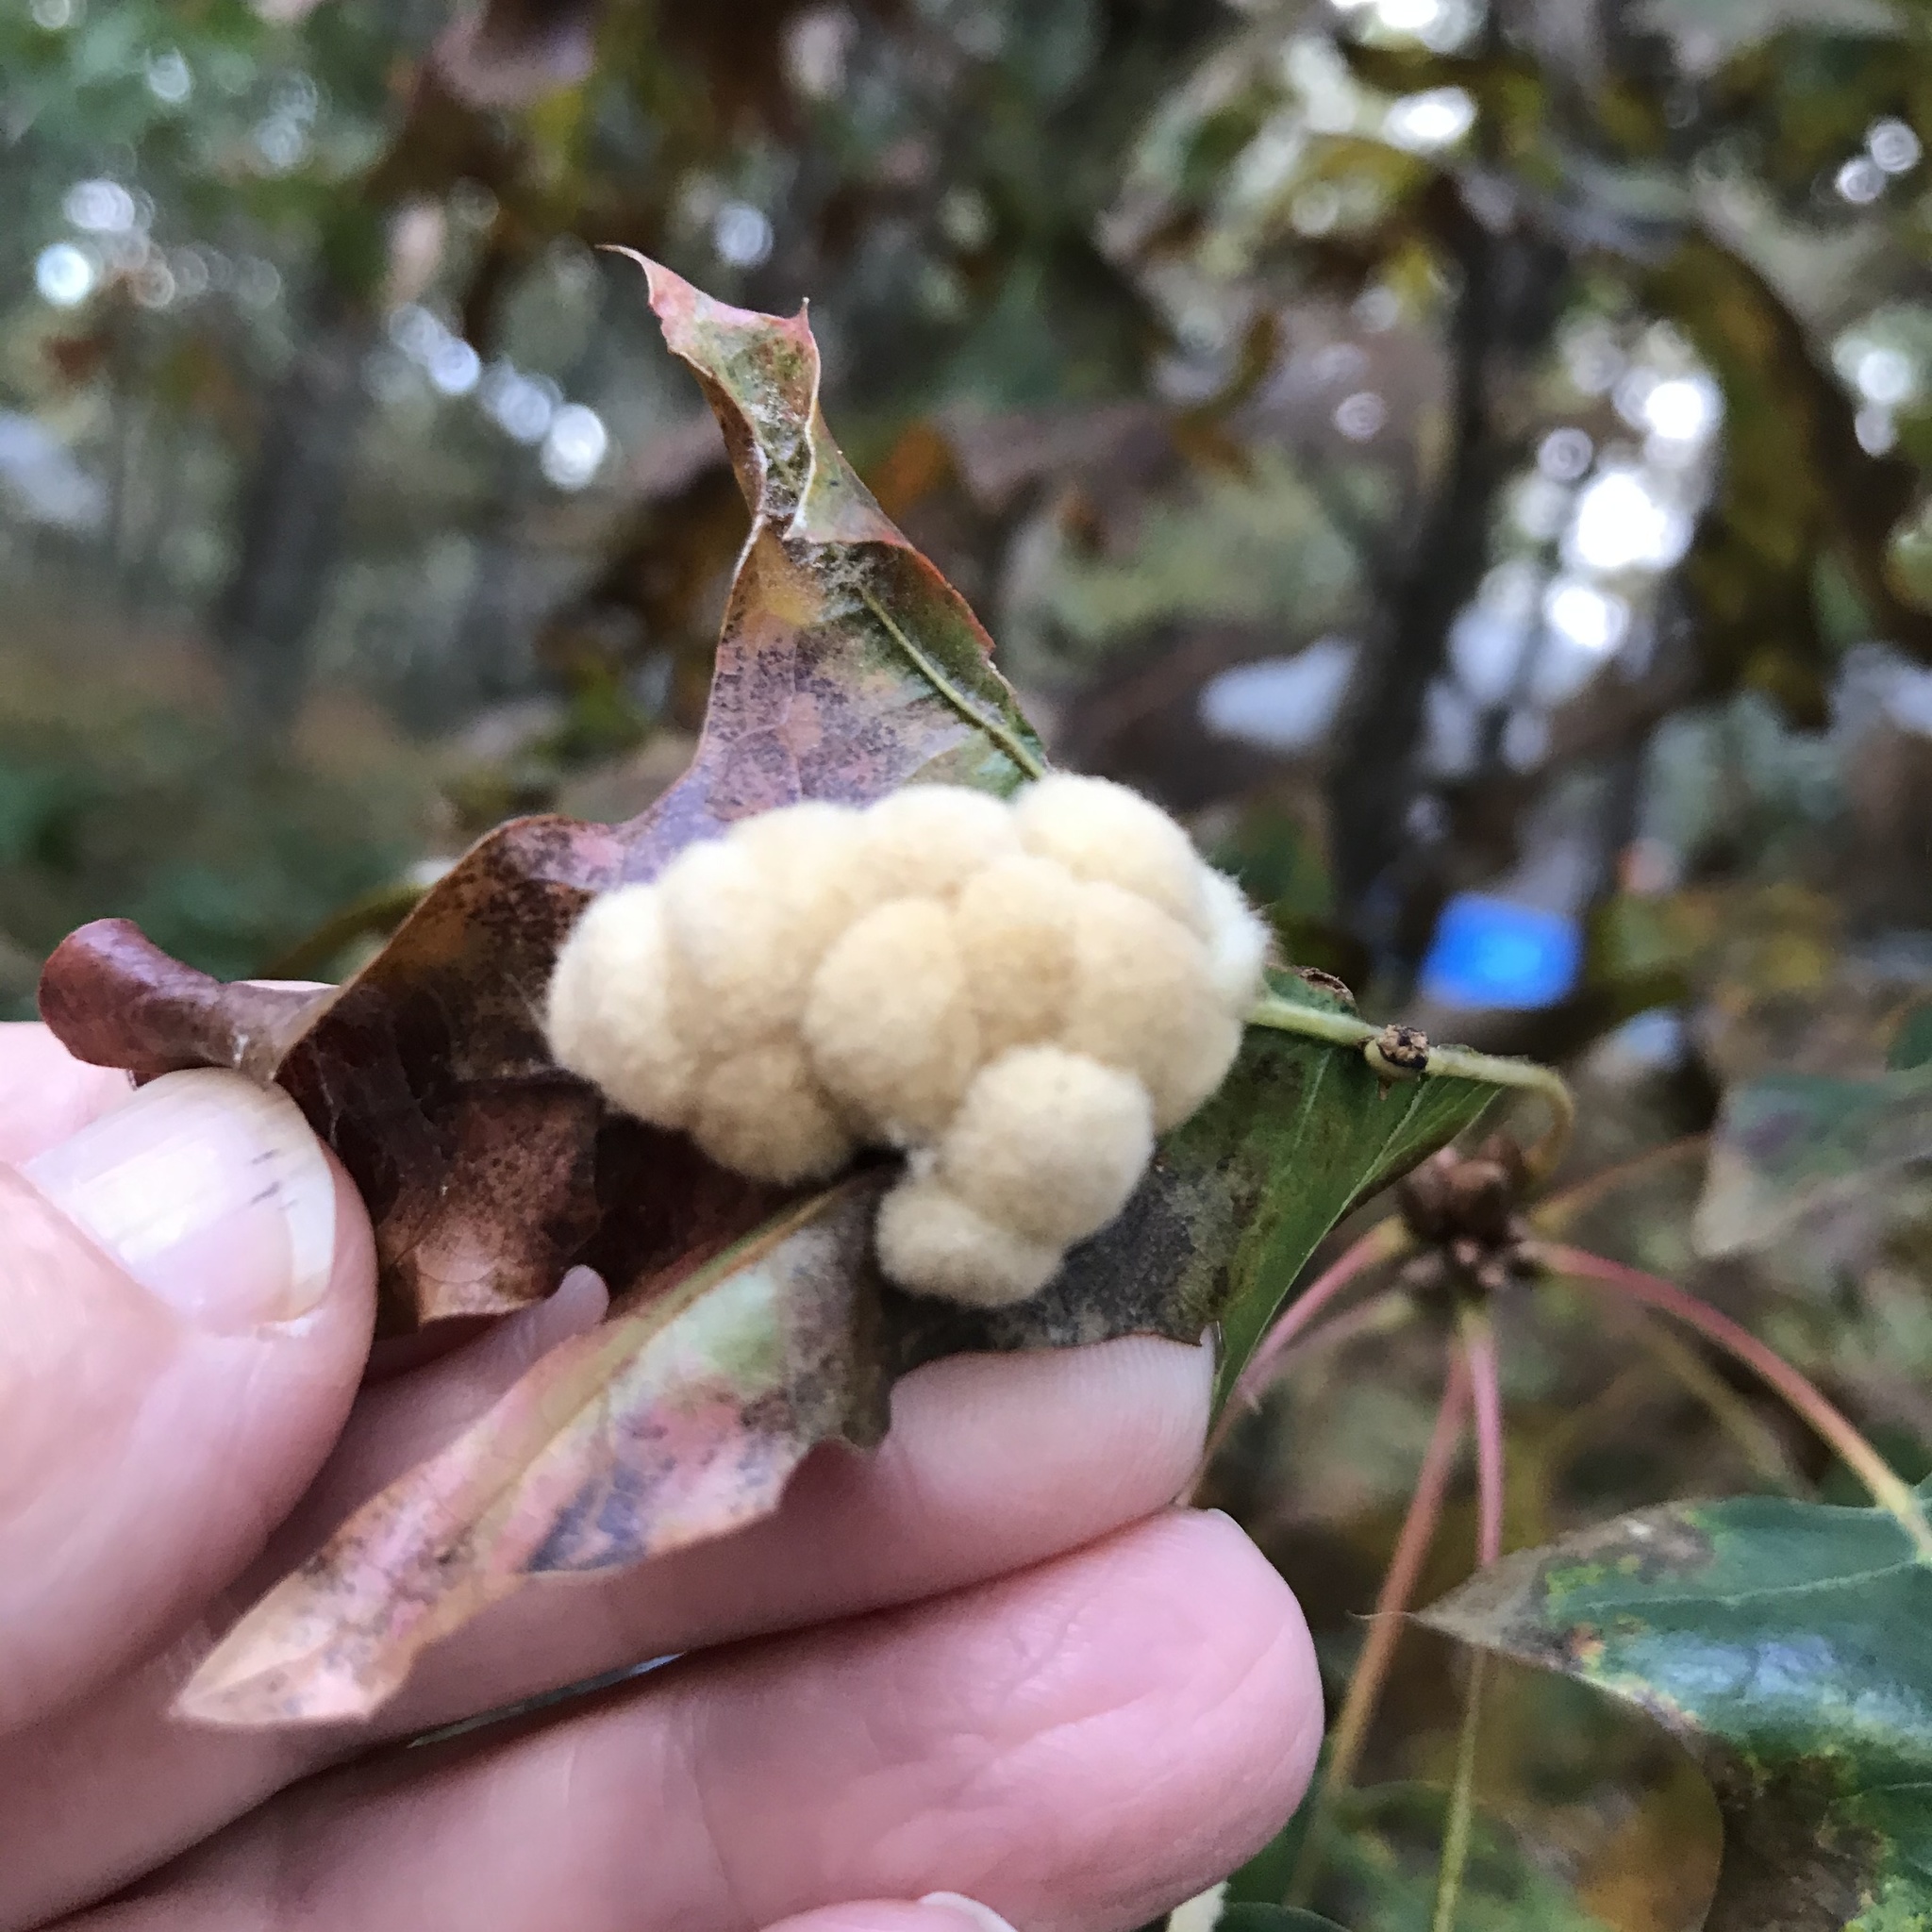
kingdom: Animalia
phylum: Arthropoda
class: Insecta
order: Hymenoptera
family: Cynipidae
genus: Callirhytis
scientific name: Callirhytis
